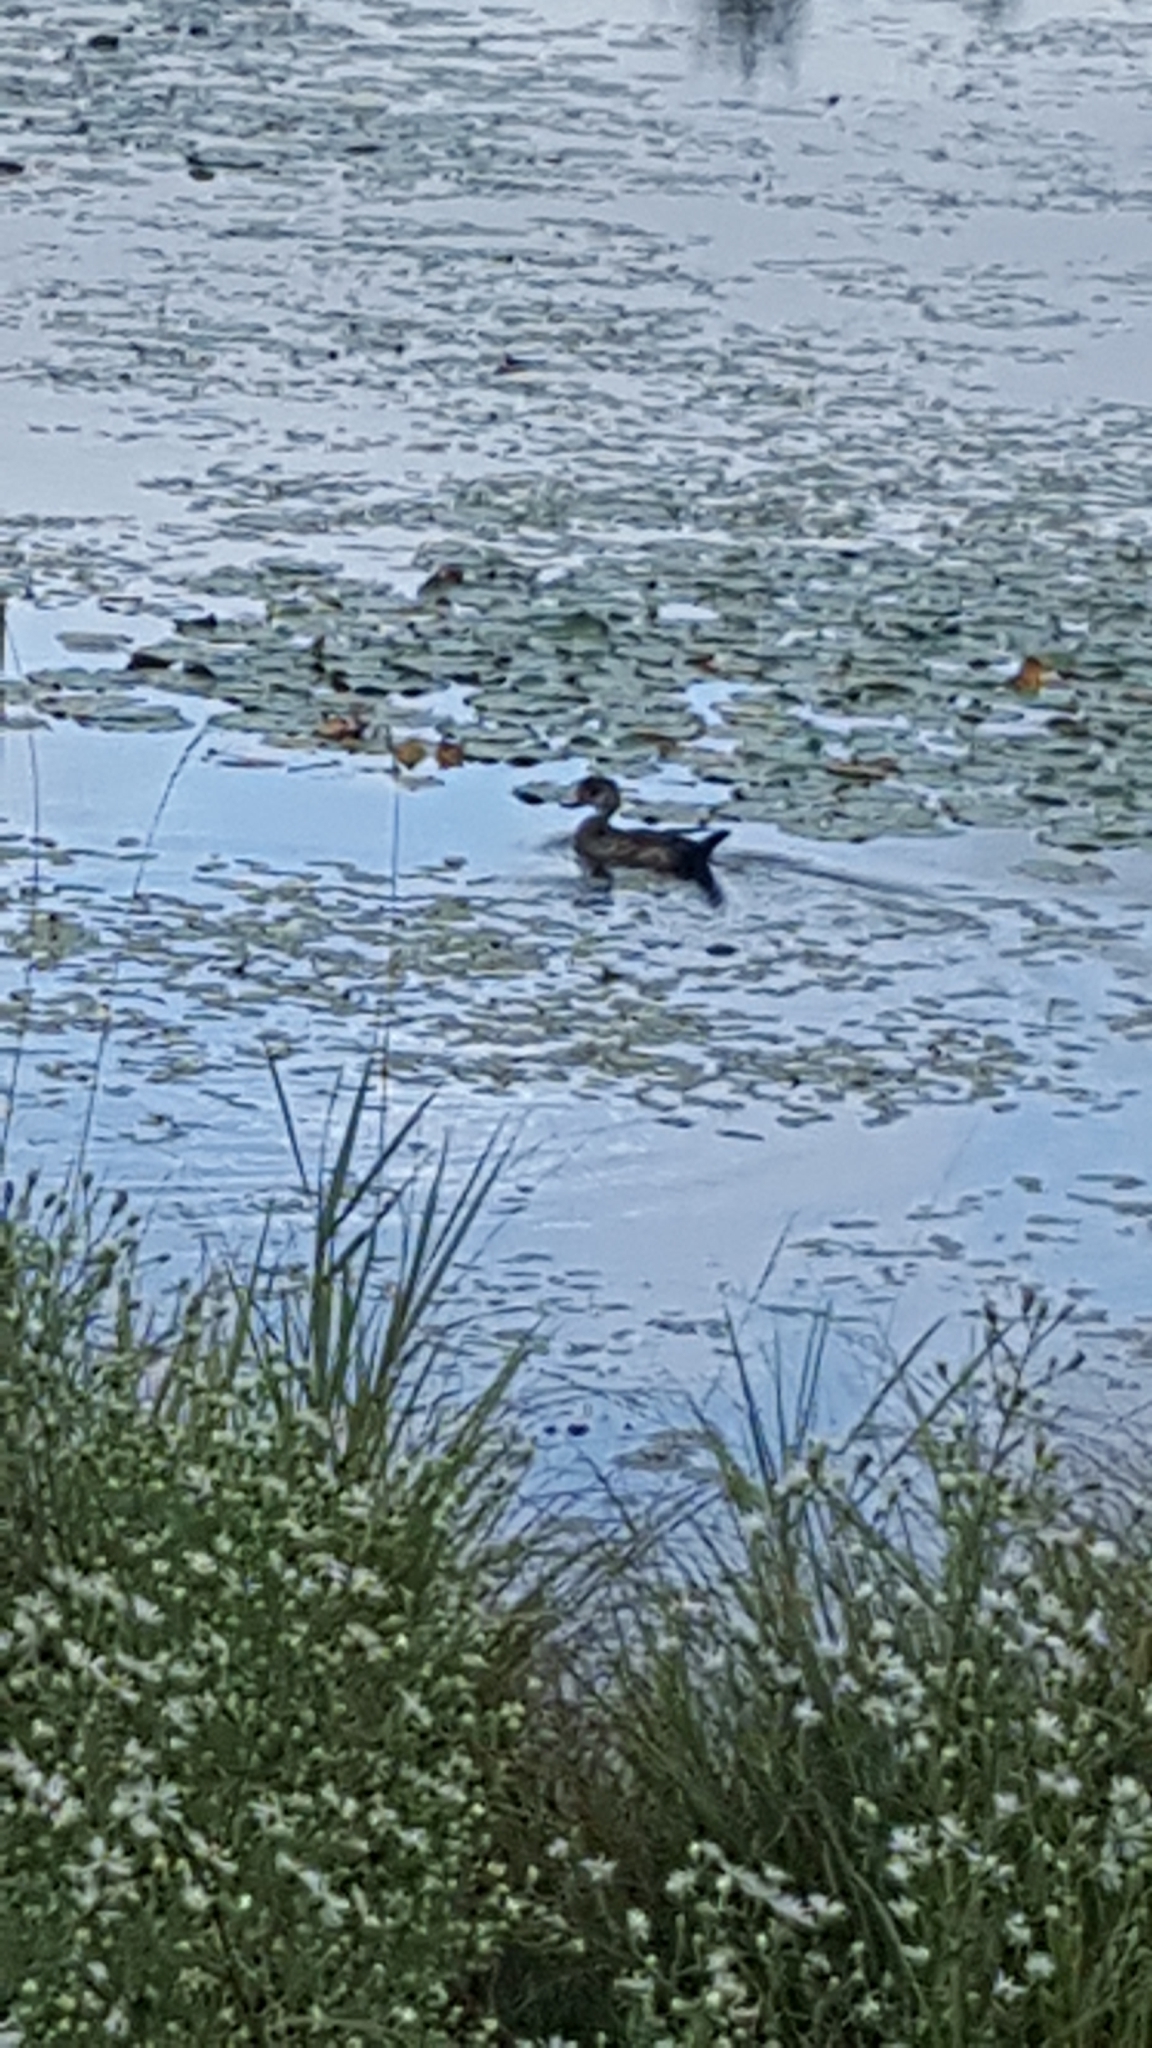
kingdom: Animalia
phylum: Chordata
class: Aves
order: Anseriformes
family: Anatidae
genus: Aix
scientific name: Aix sponsa
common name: Wood duck
